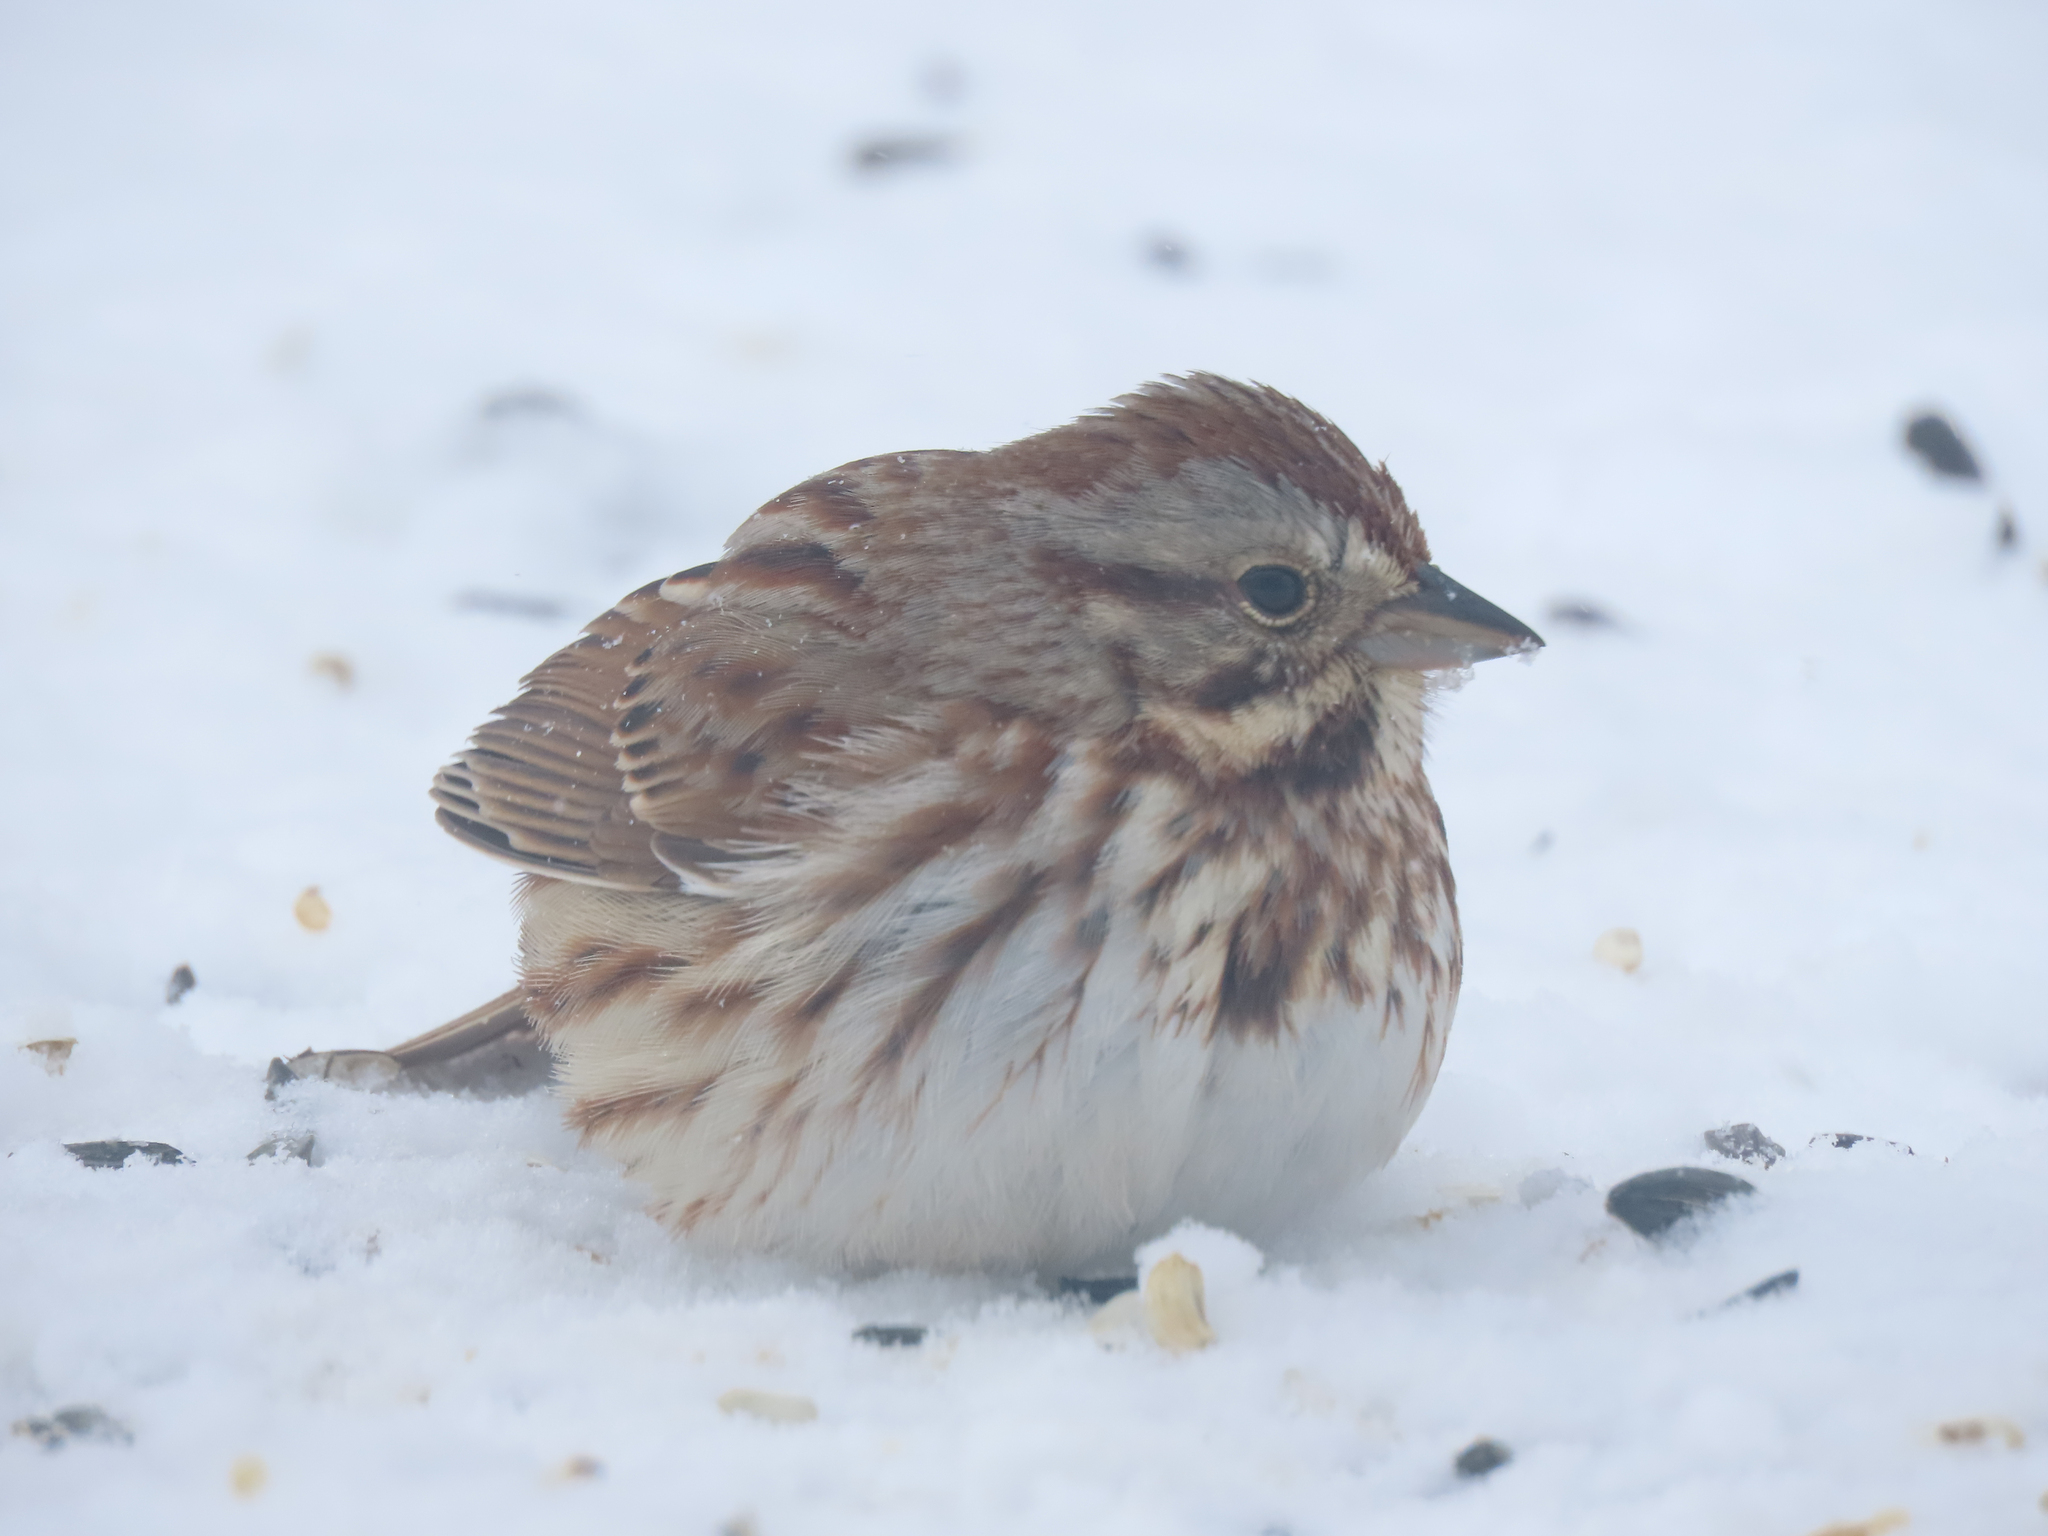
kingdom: Animalia
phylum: Chordata
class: Aves
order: Passeriformes
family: Passerellidae
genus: Melospiza
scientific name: Melospiza melodia
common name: Song sparrow
